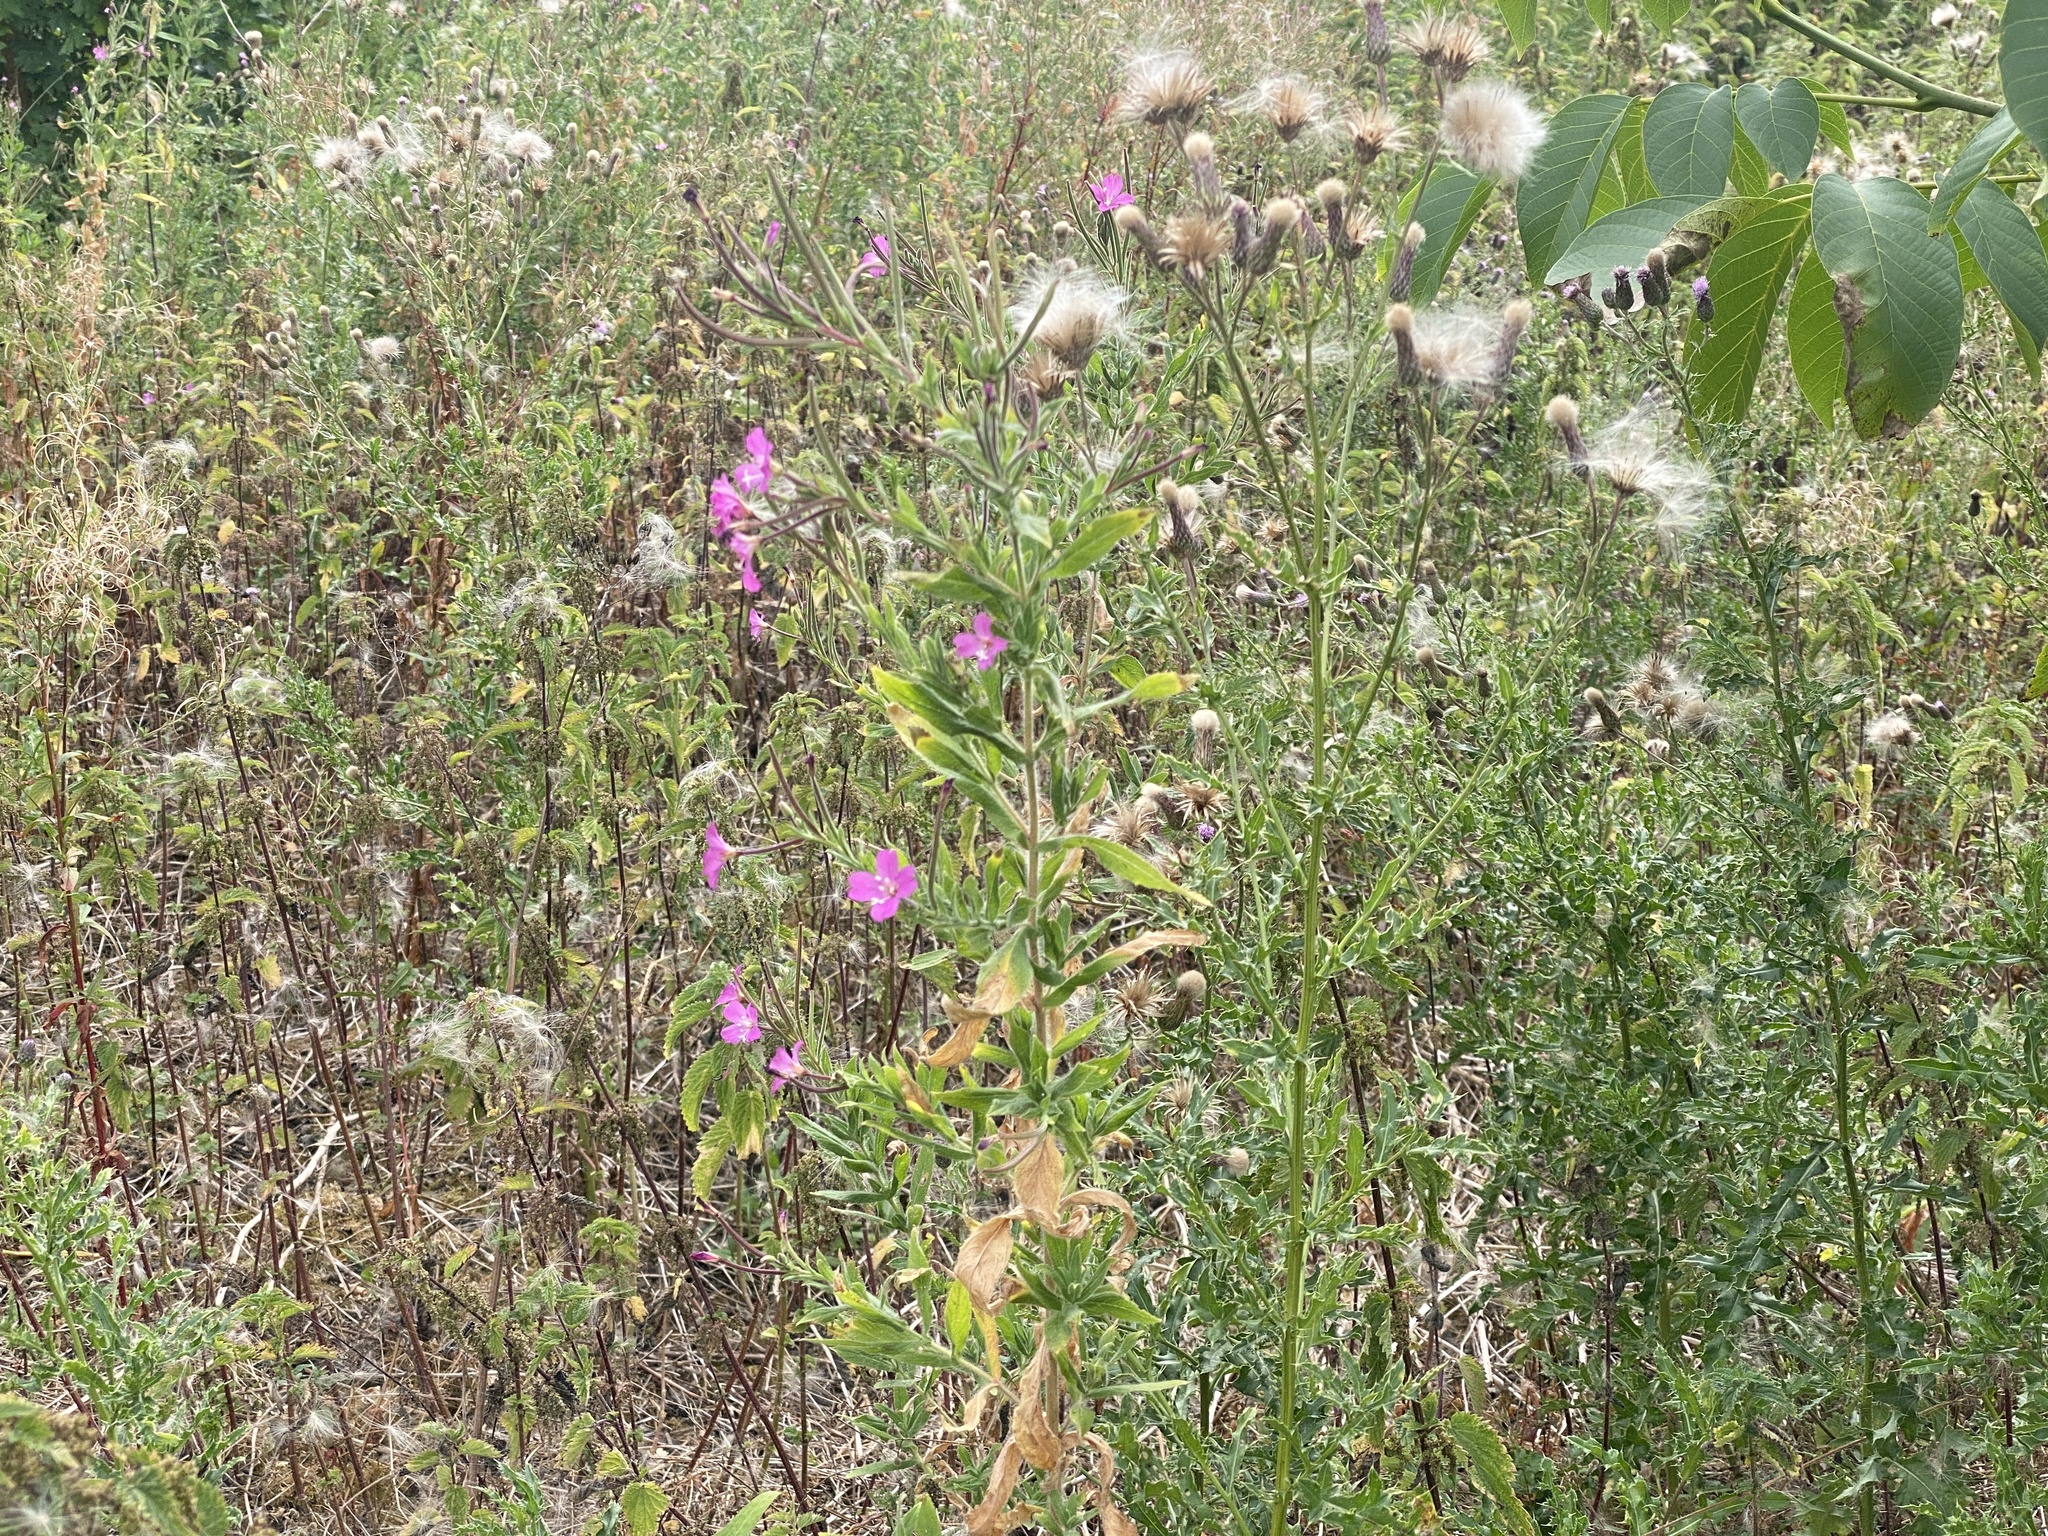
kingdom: Plantae
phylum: Tracheophyta
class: Magnoliopsida
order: Myrtales
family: Onagraceae
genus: Epilobium
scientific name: Epilobium hirsutum
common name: Great willowherb
